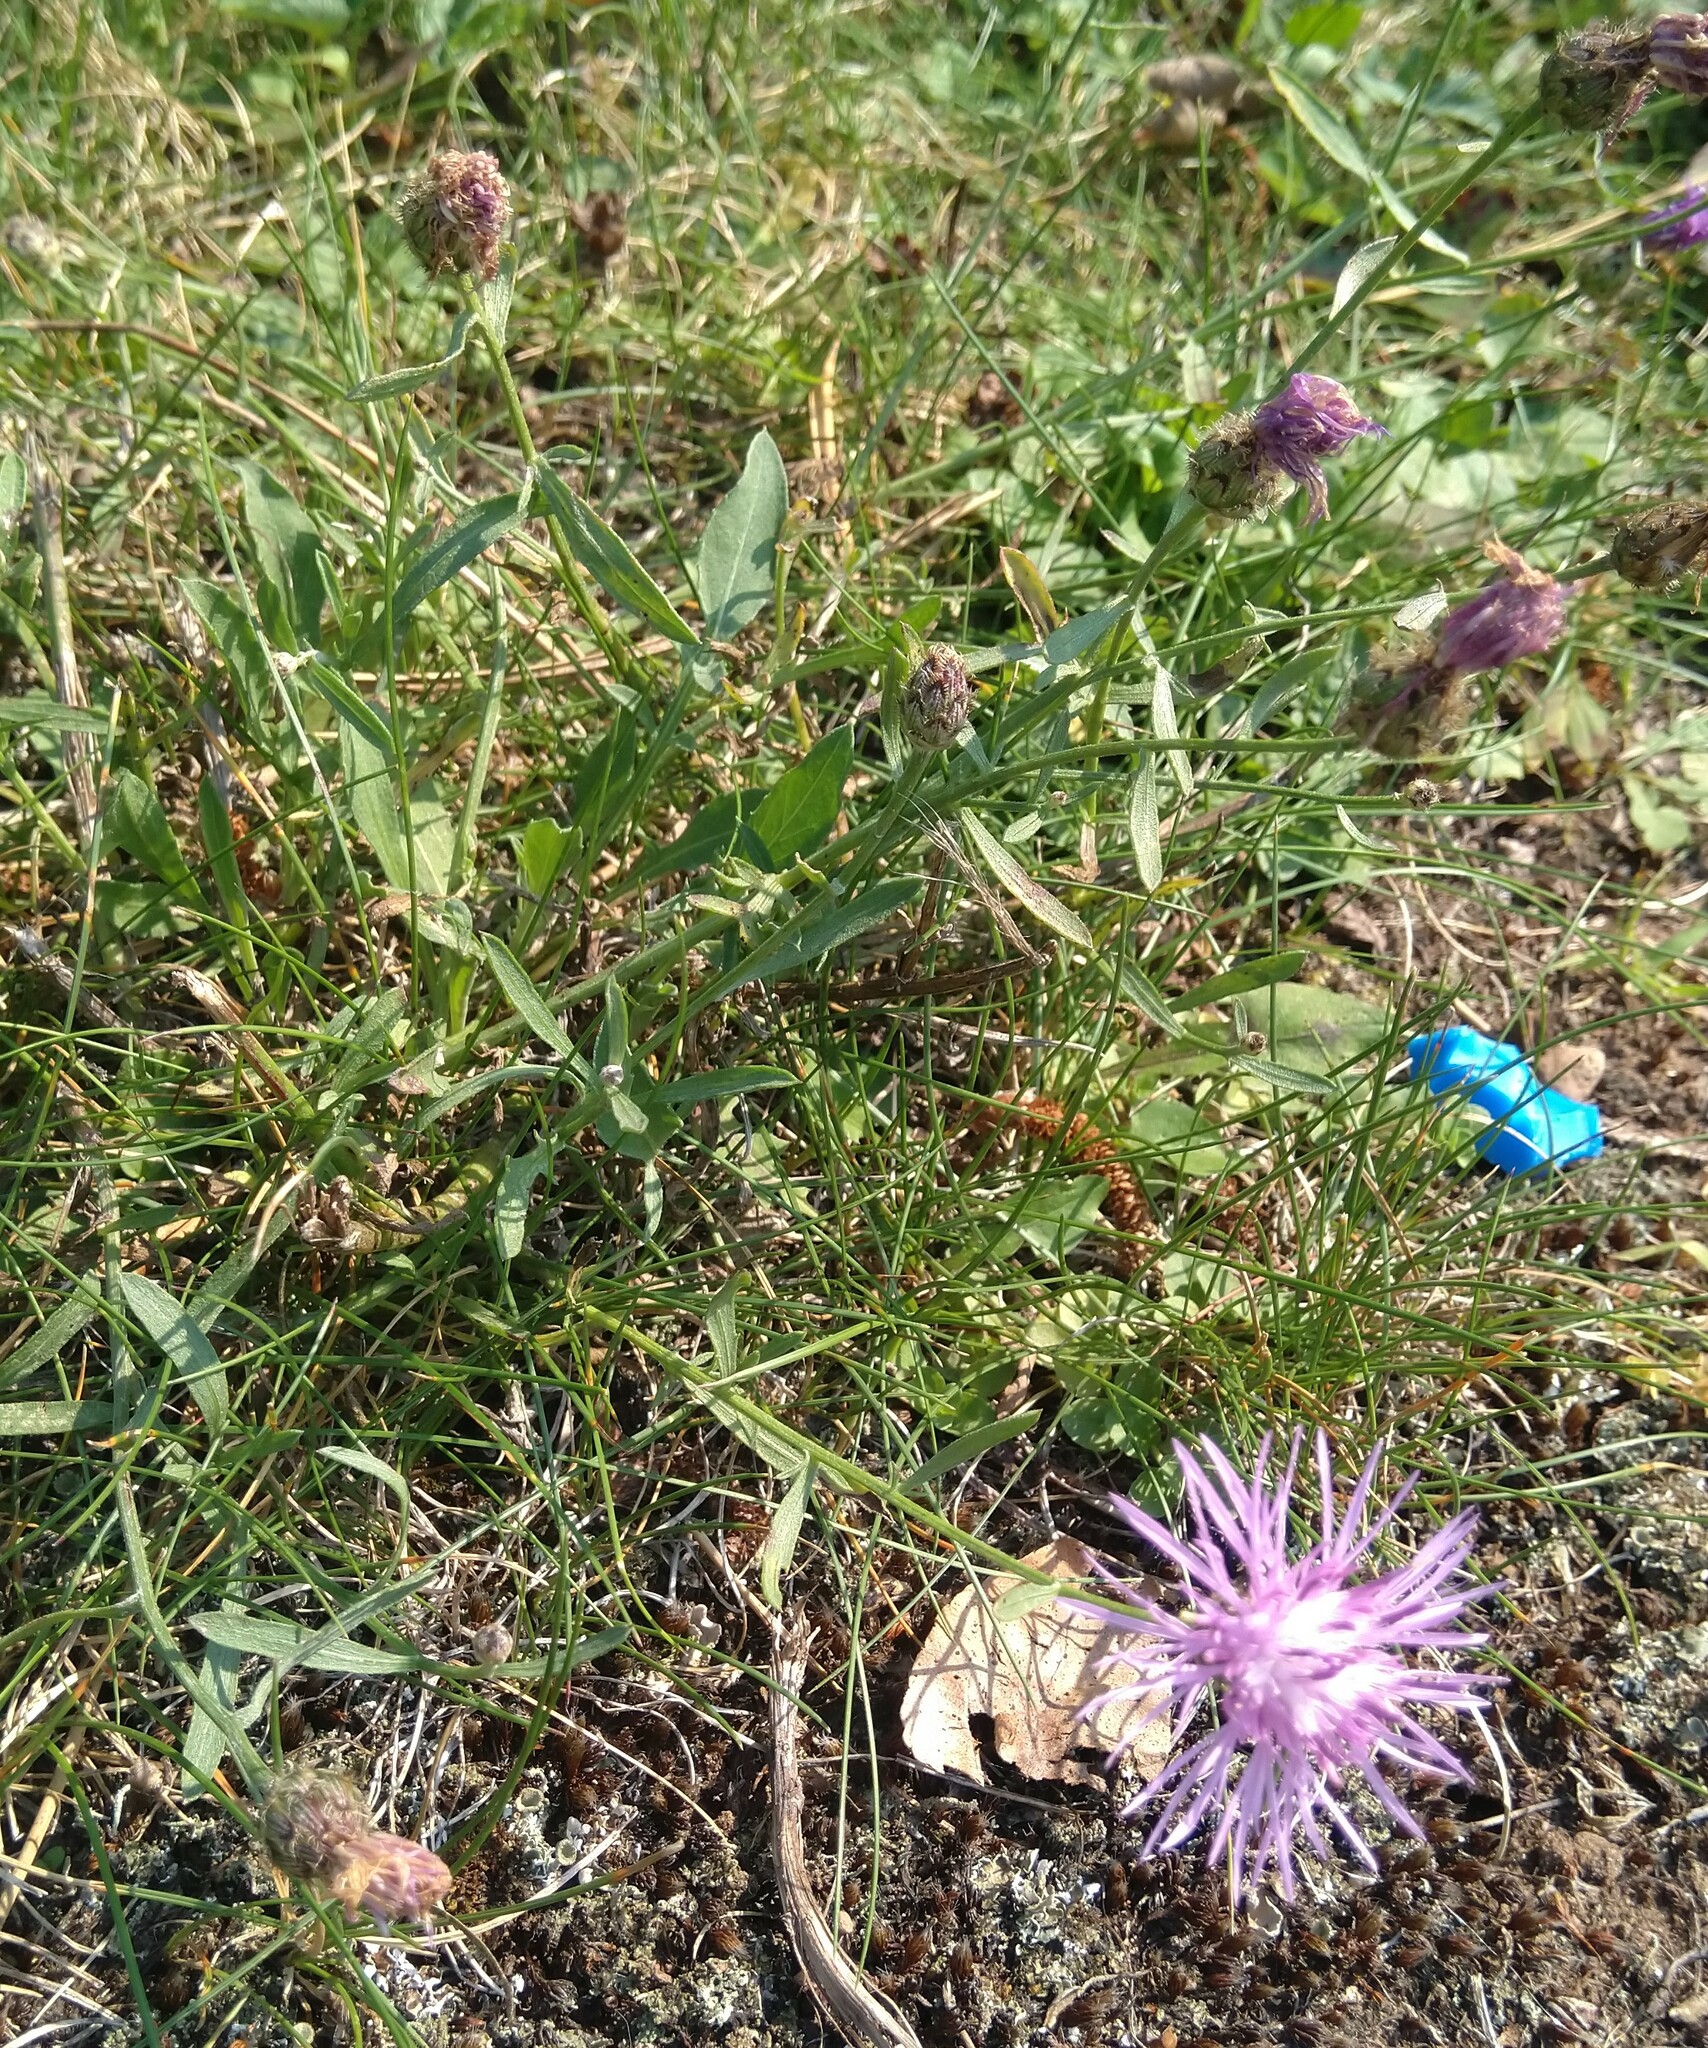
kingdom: Plantae
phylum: Tracheophyta
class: Magnoliopsida
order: Asterales
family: Asteraceae
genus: Centaurea
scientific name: Centaurea stoebe
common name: Spotted knapweed
